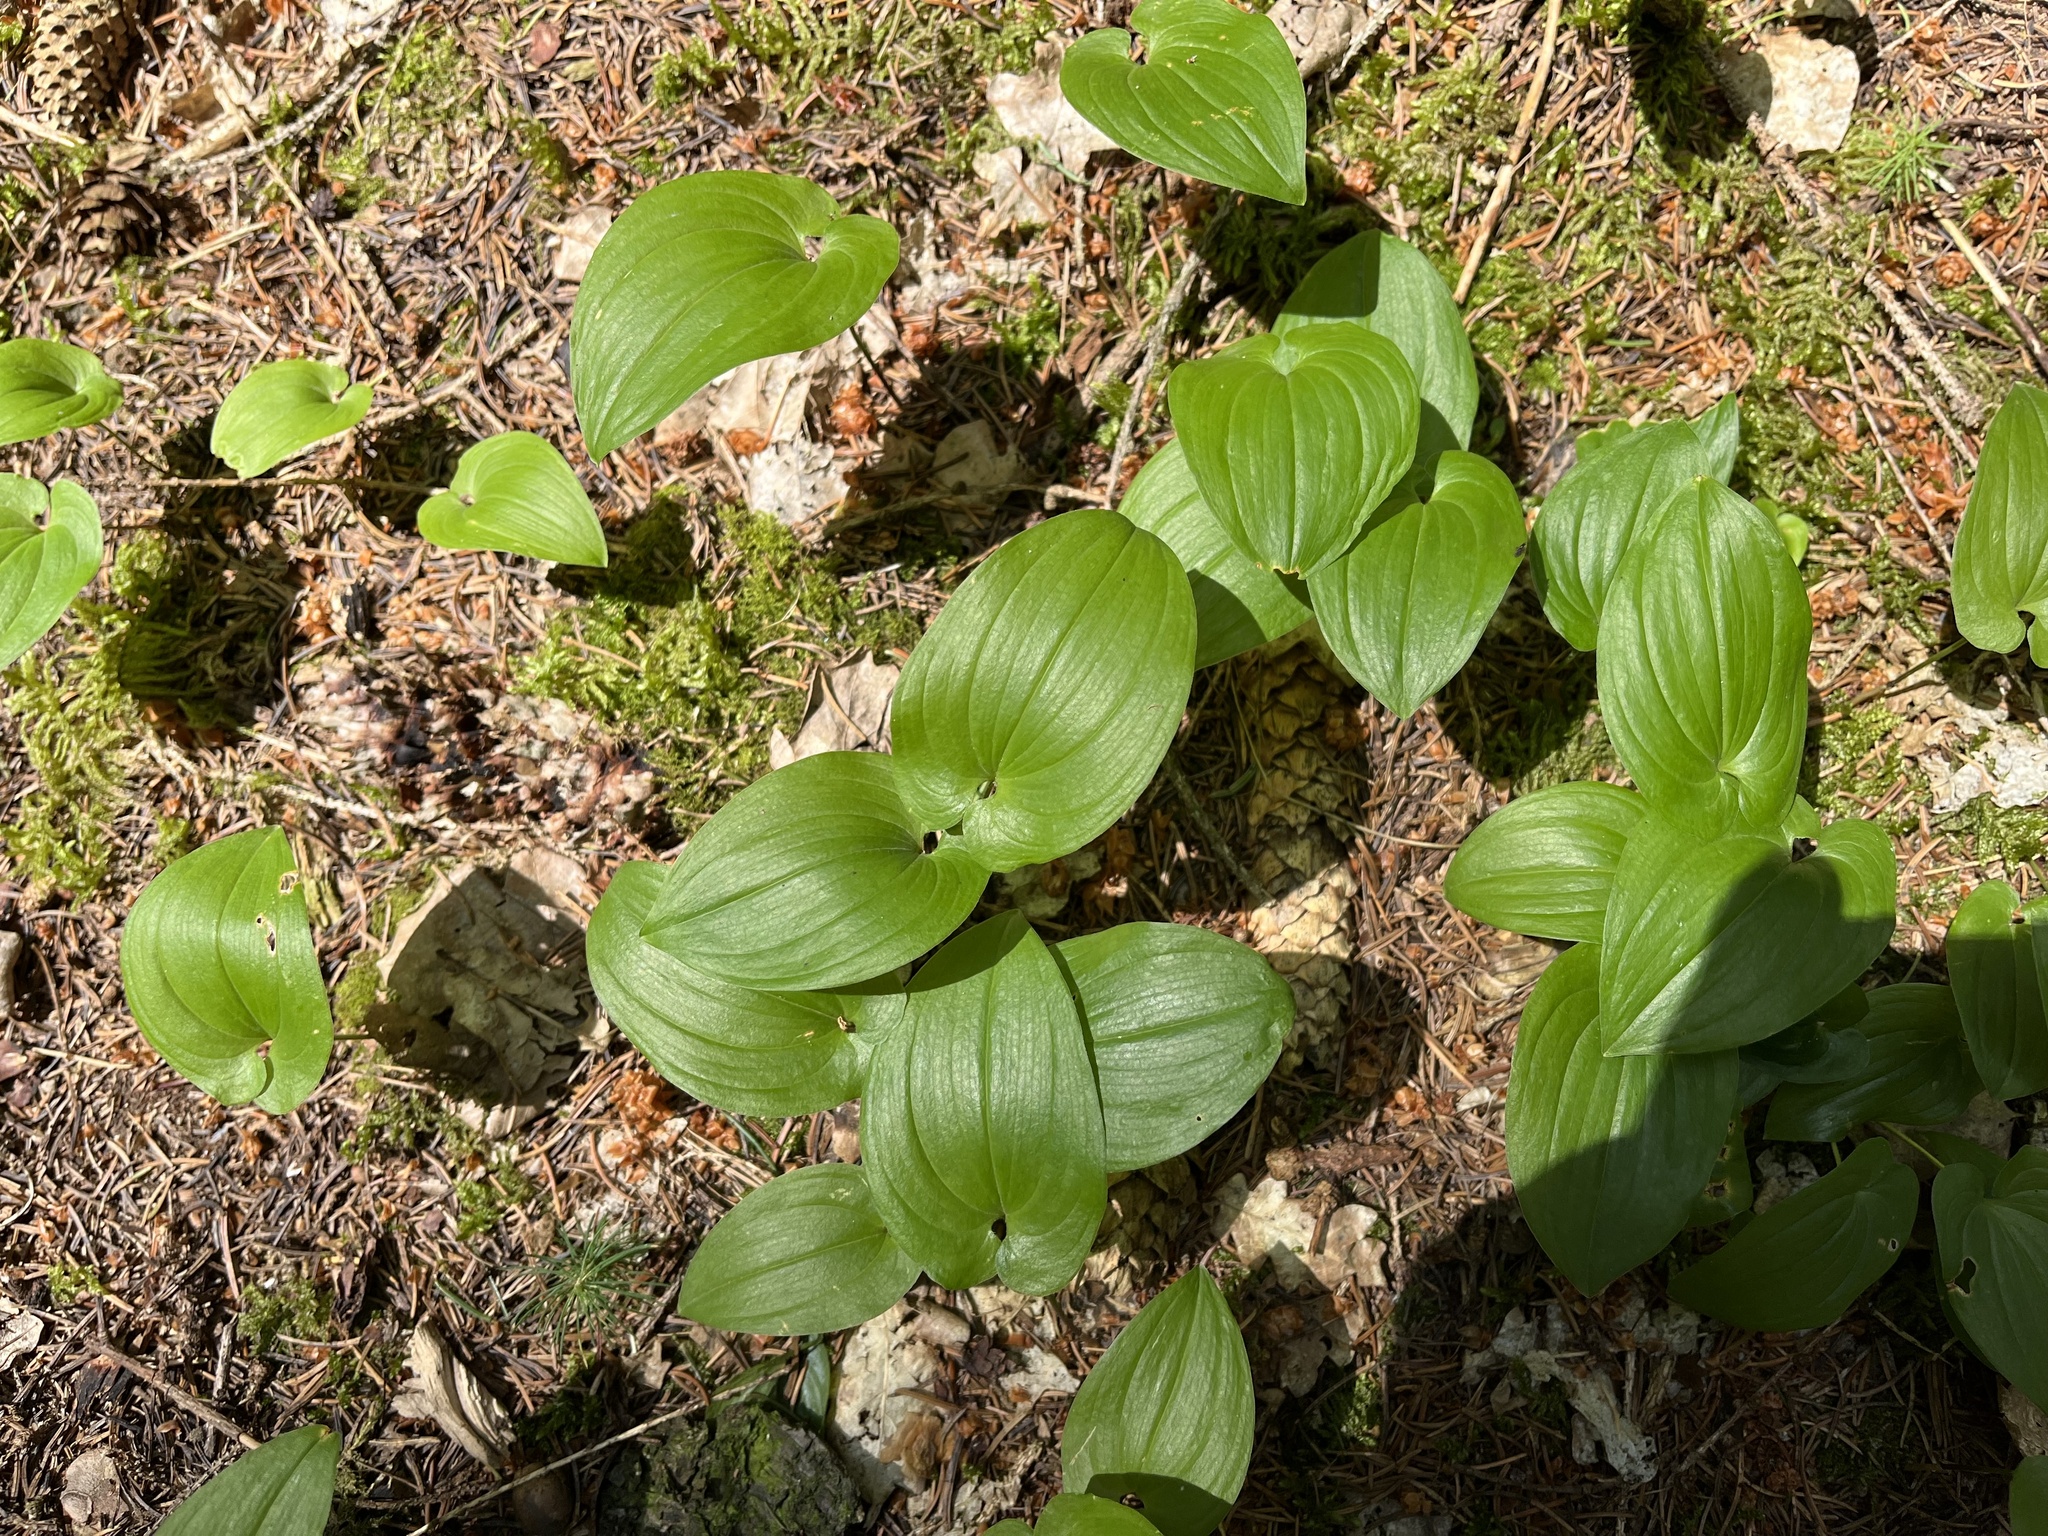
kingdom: Plantae
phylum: Tracheophyta
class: Liliopsida
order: Asparagales
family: Asparagaceae
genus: Maianthemum
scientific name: Maianthemum bifolium
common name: May lily
